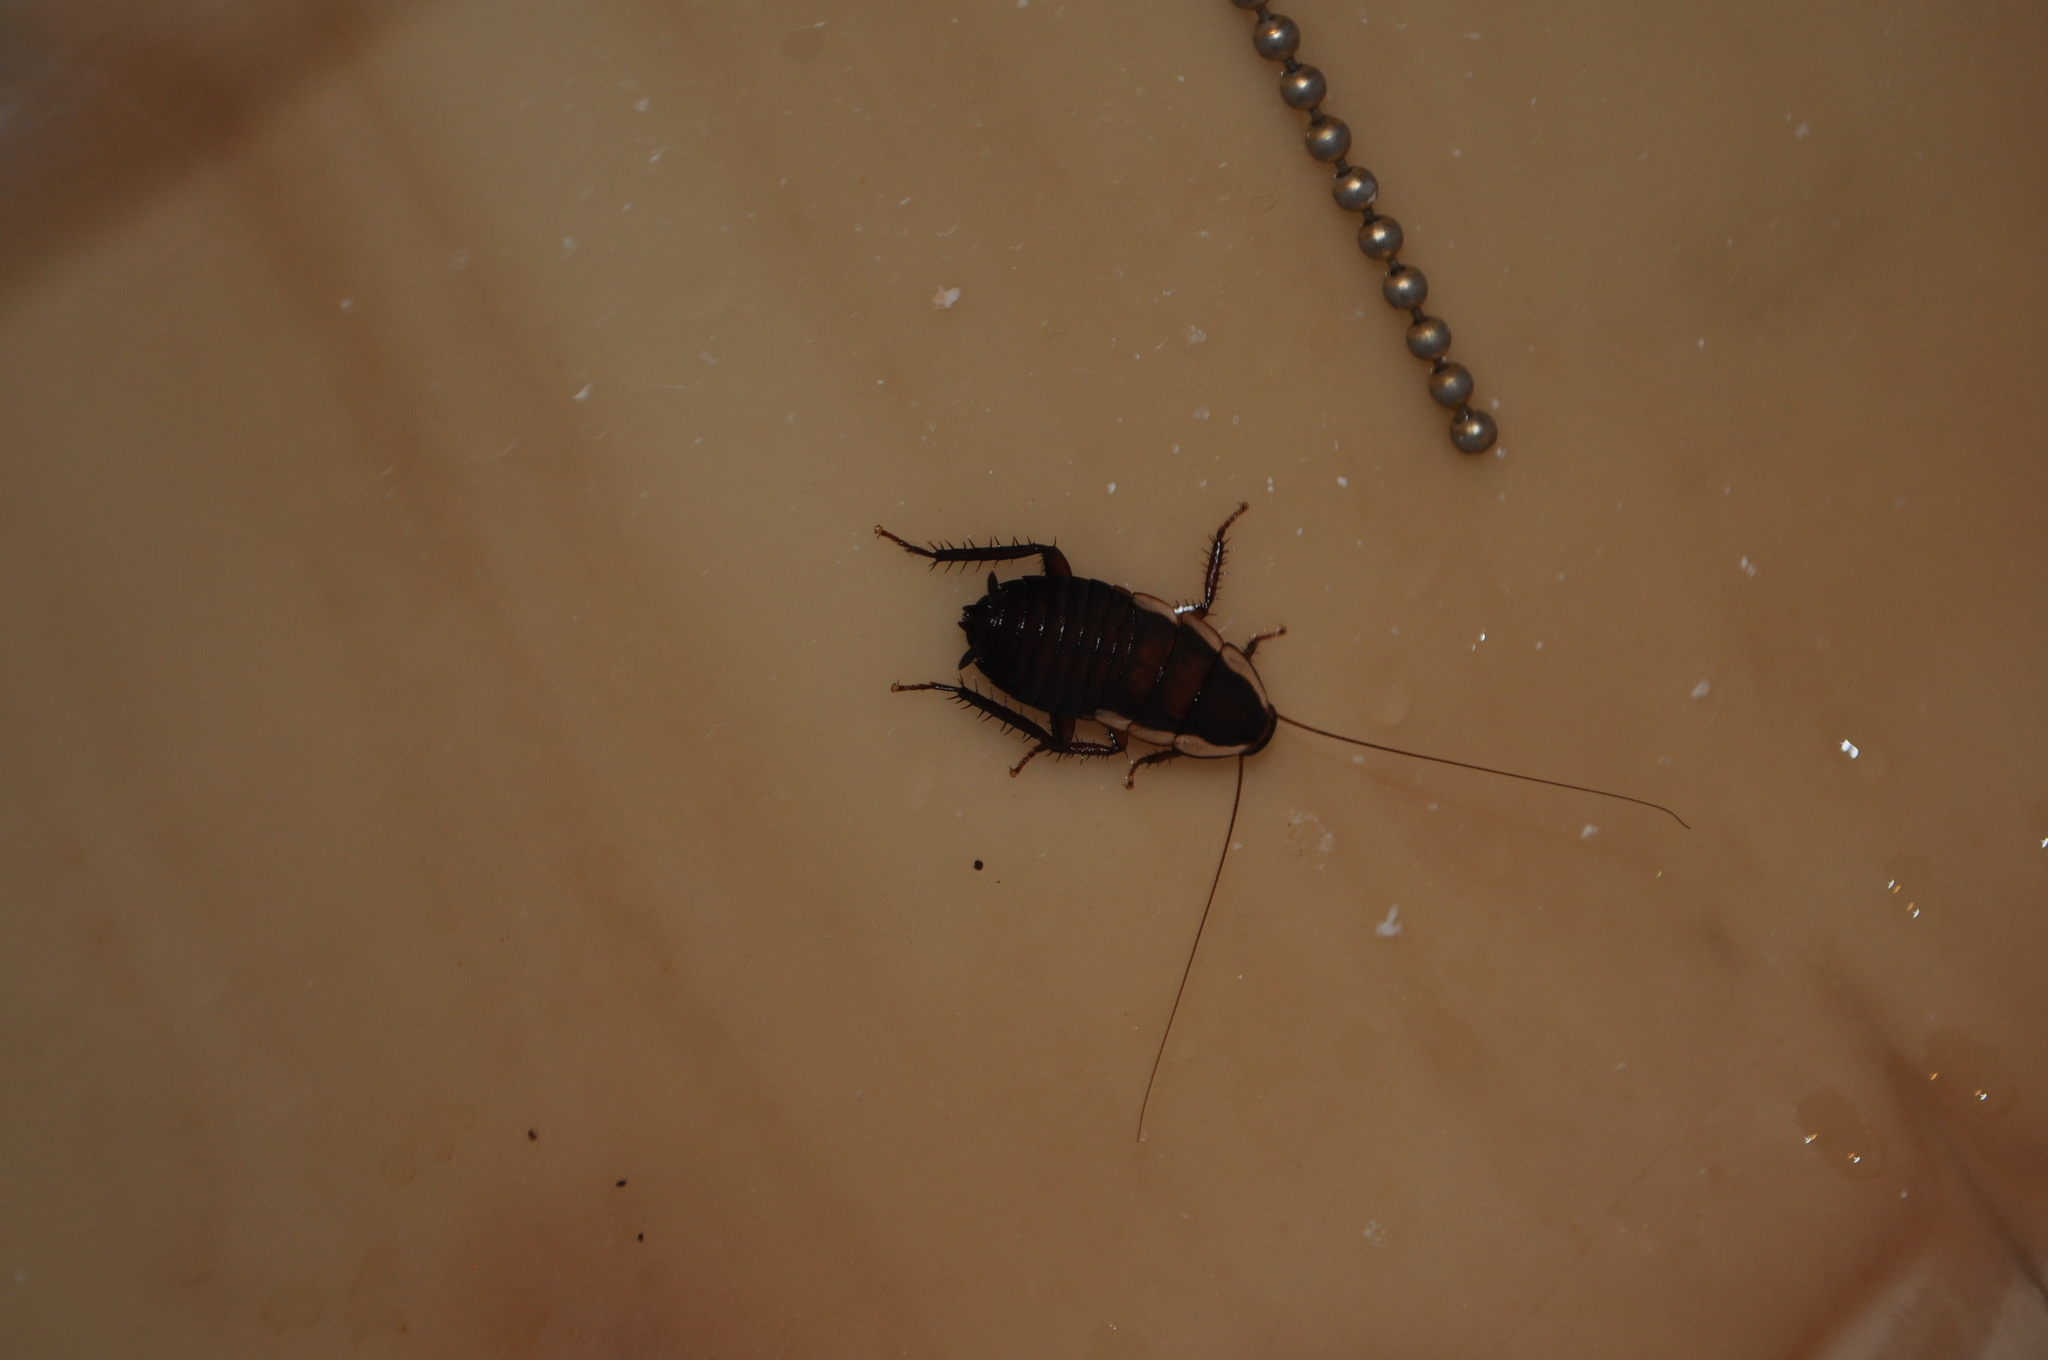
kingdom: Animalia
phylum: Arthropoda
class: Insecta
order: Blattodea
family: Blattidae
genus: Drymaplaneta
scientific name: Drymaplaneta semivitta
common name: Gisborne cockroach
